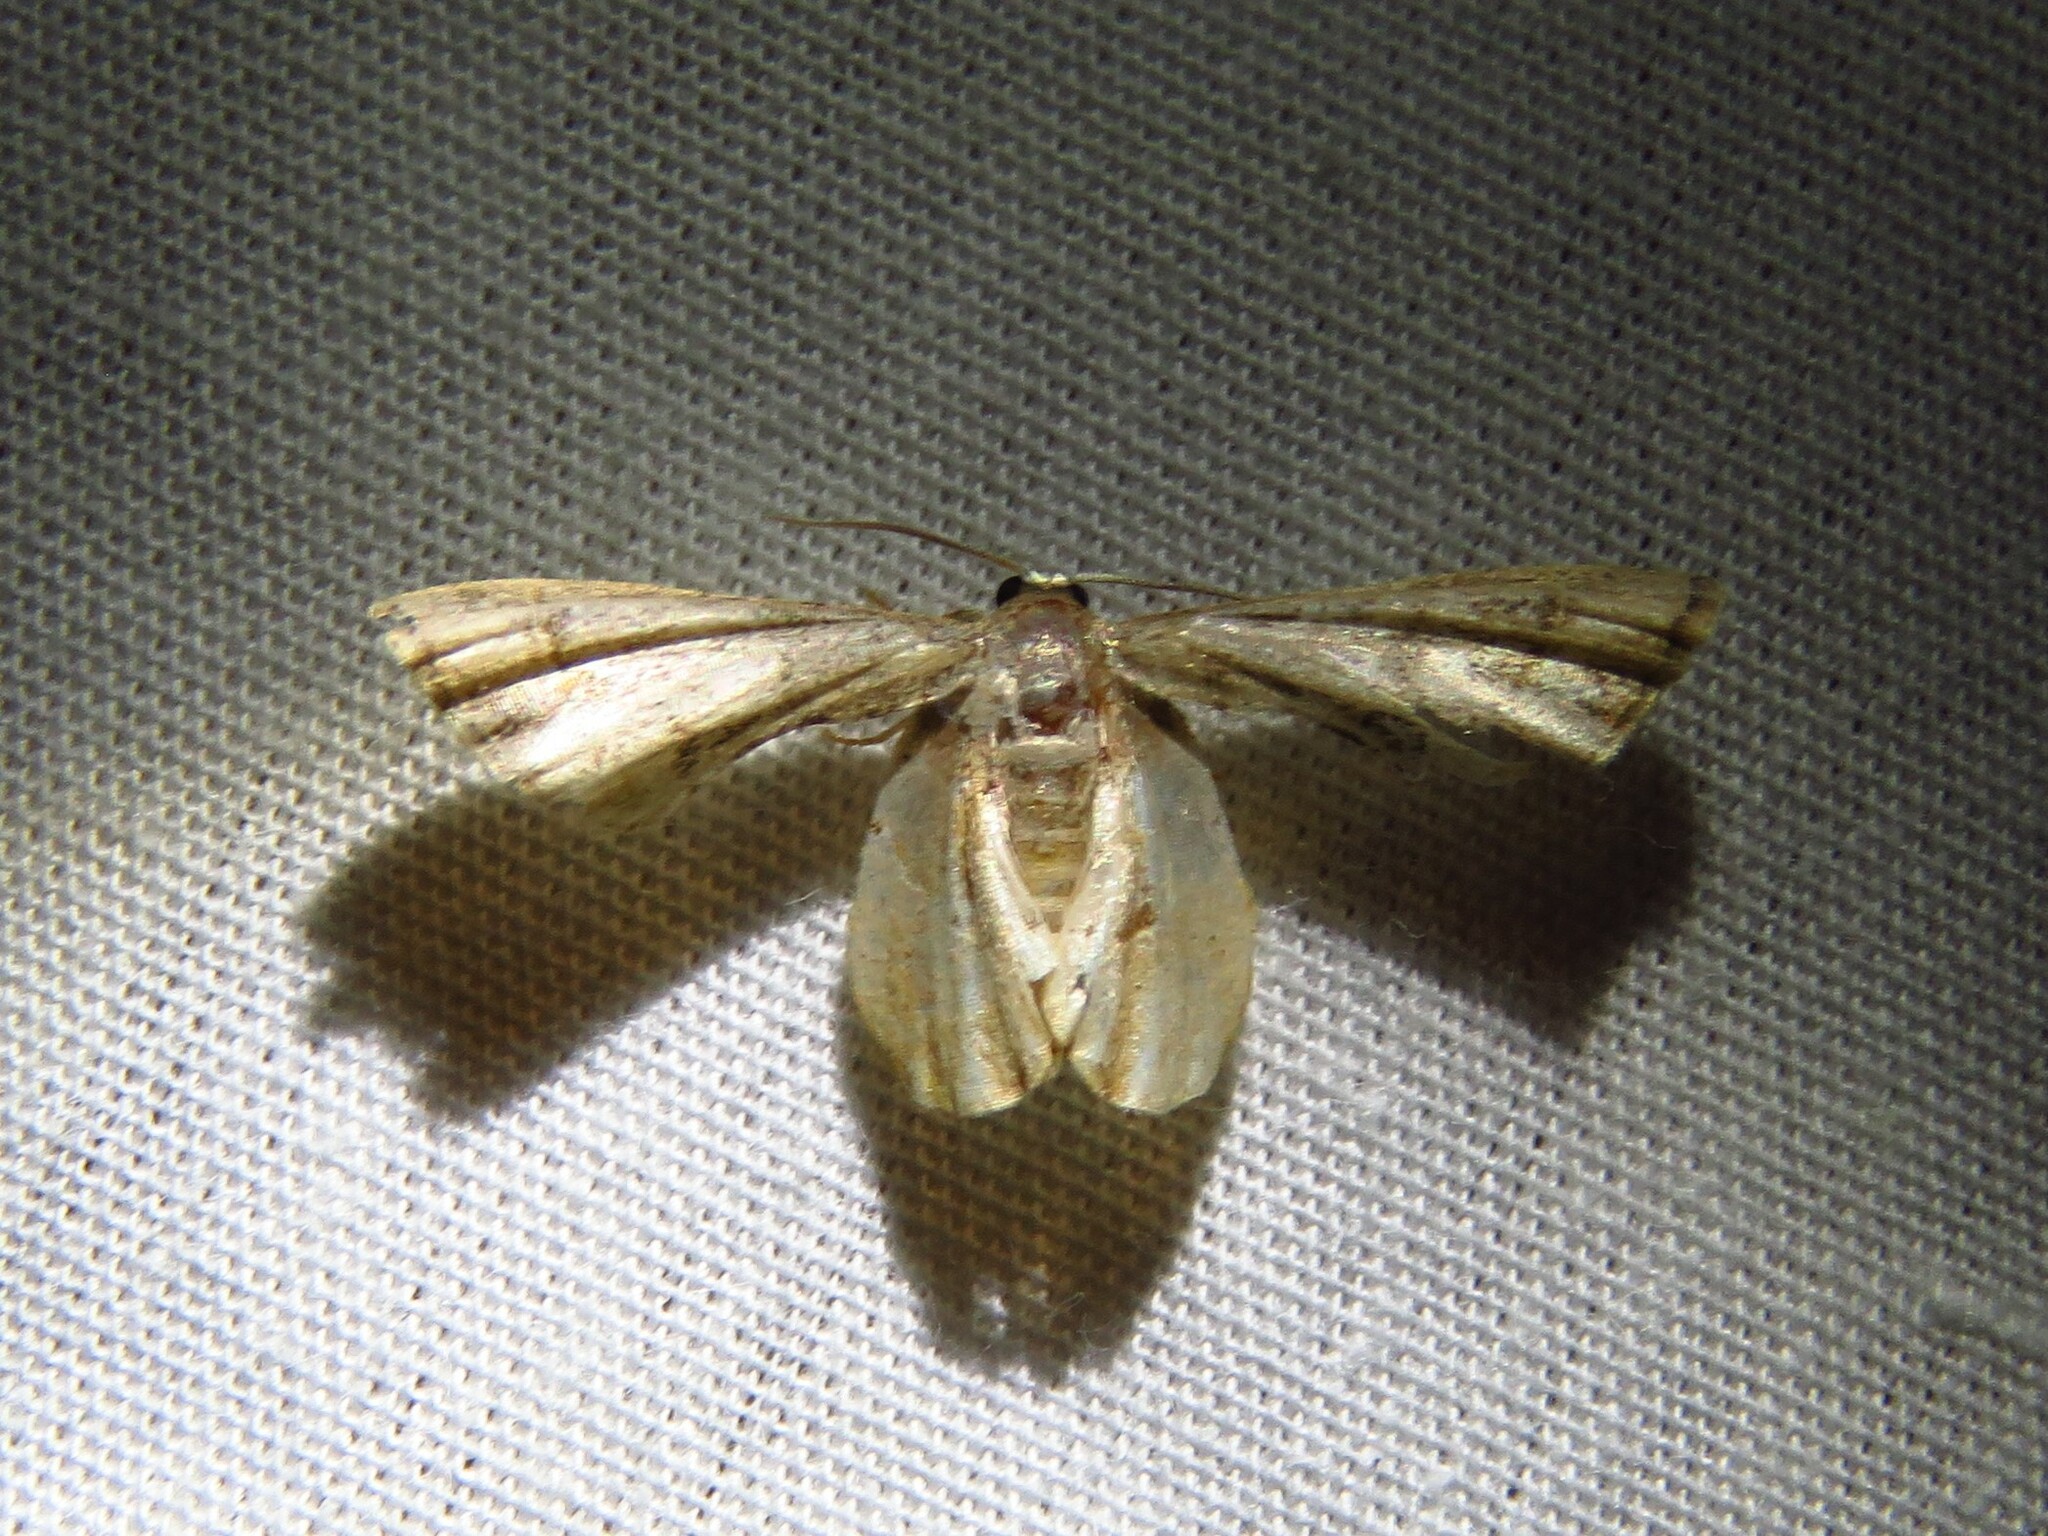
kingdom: Animalia
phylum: Arthropoda
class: Insecta
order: Lepidoptera
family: Uraniidae
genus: Phazaca
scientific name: Phazaca theclata
